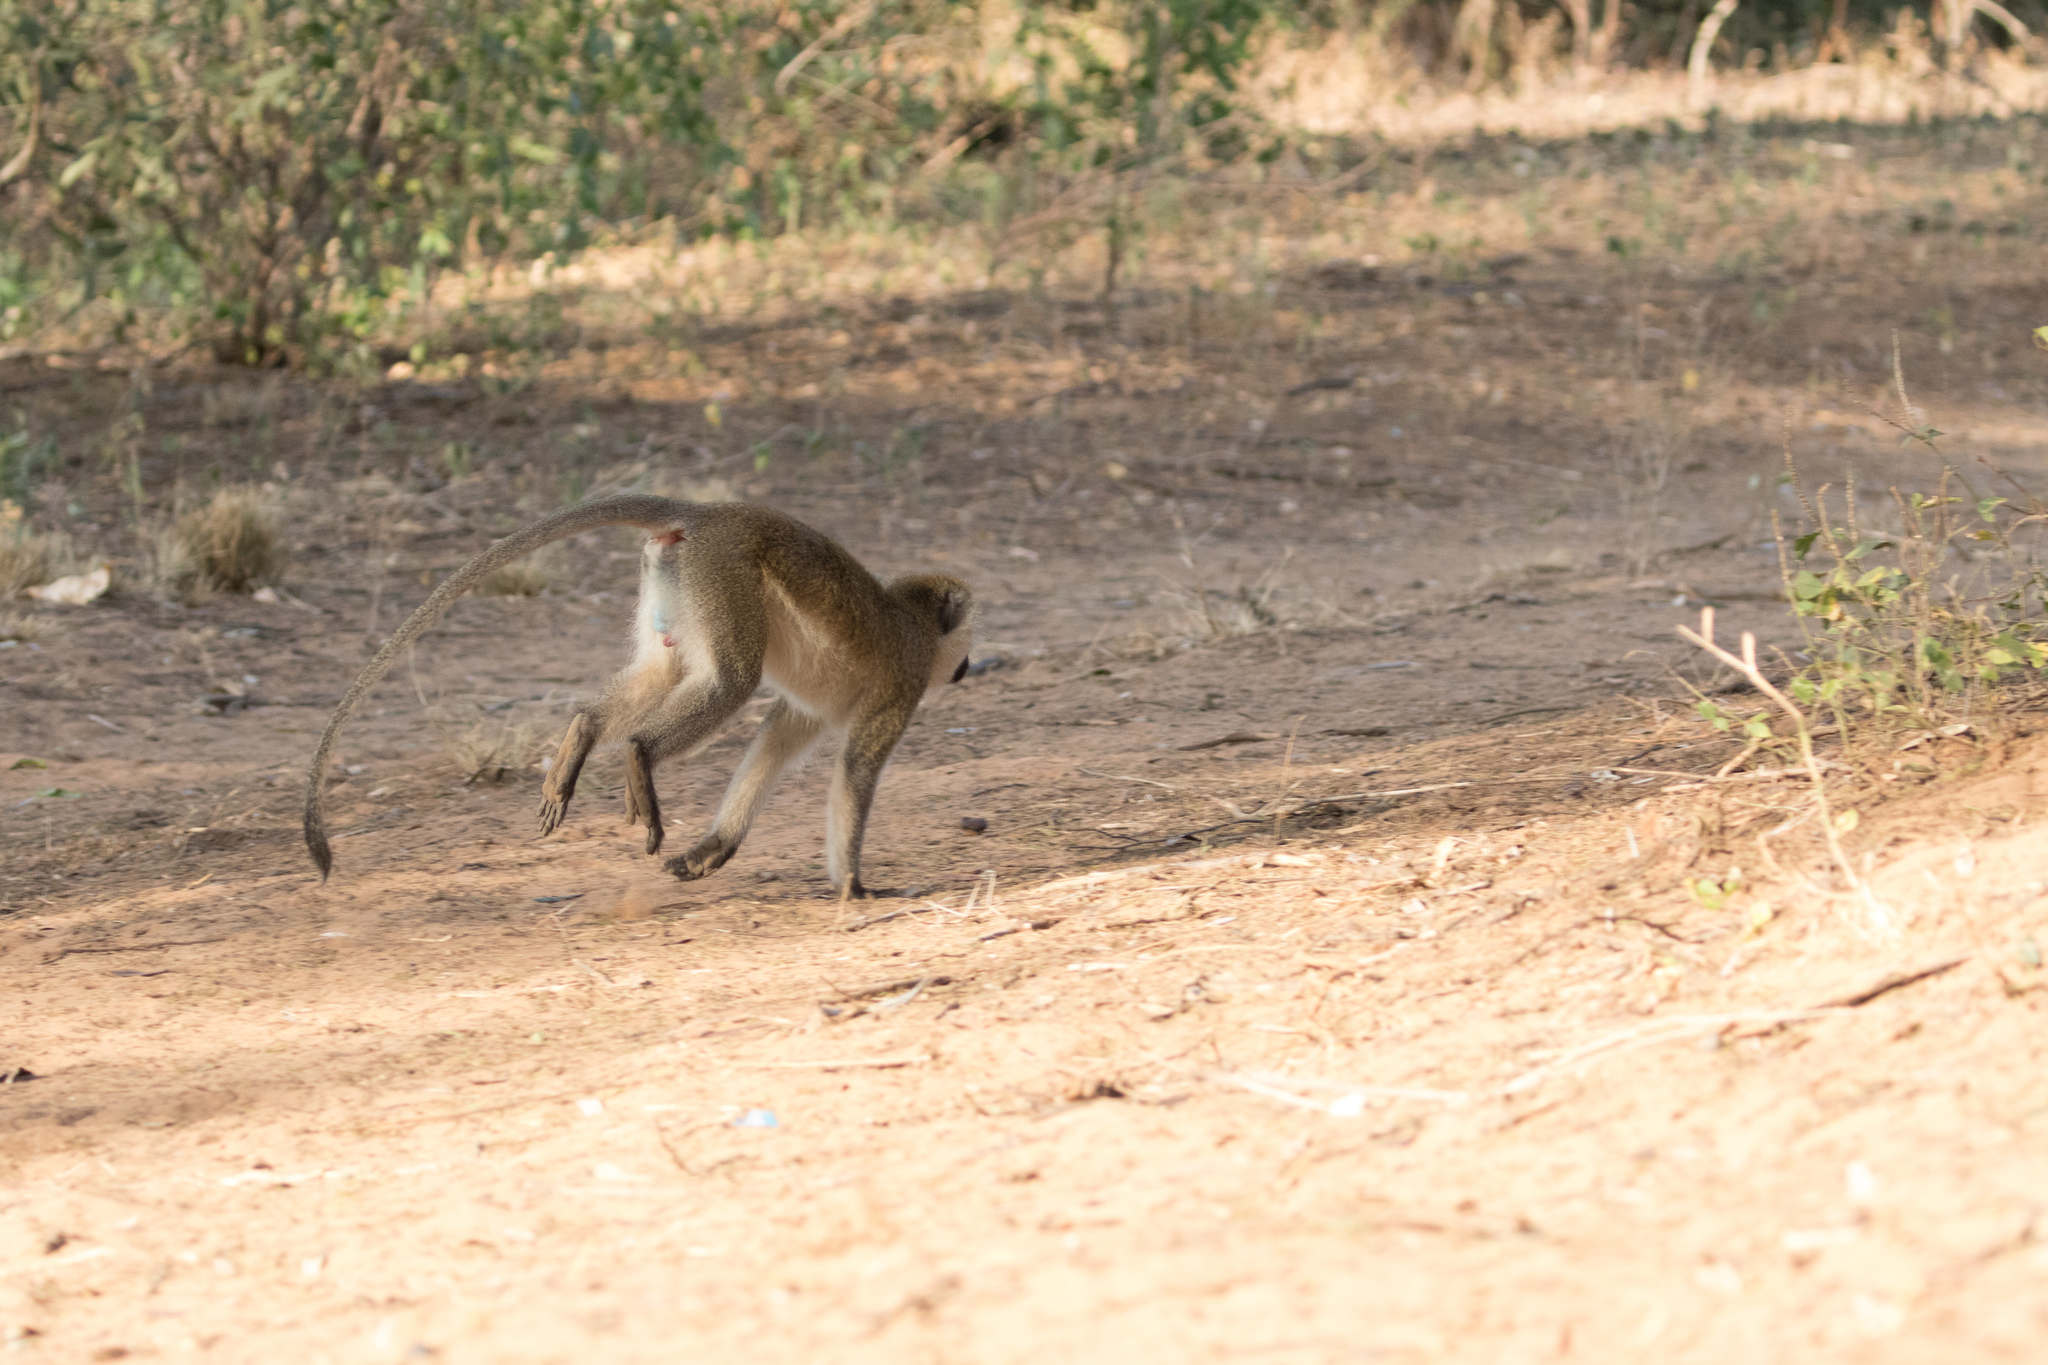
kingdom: Animalia
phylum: Chordata
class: Mammalia
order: Primates
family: Cercopithecidae
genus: Chlorocebus
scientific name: Chlorocebus pygerythrus
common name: Vervet monkey
